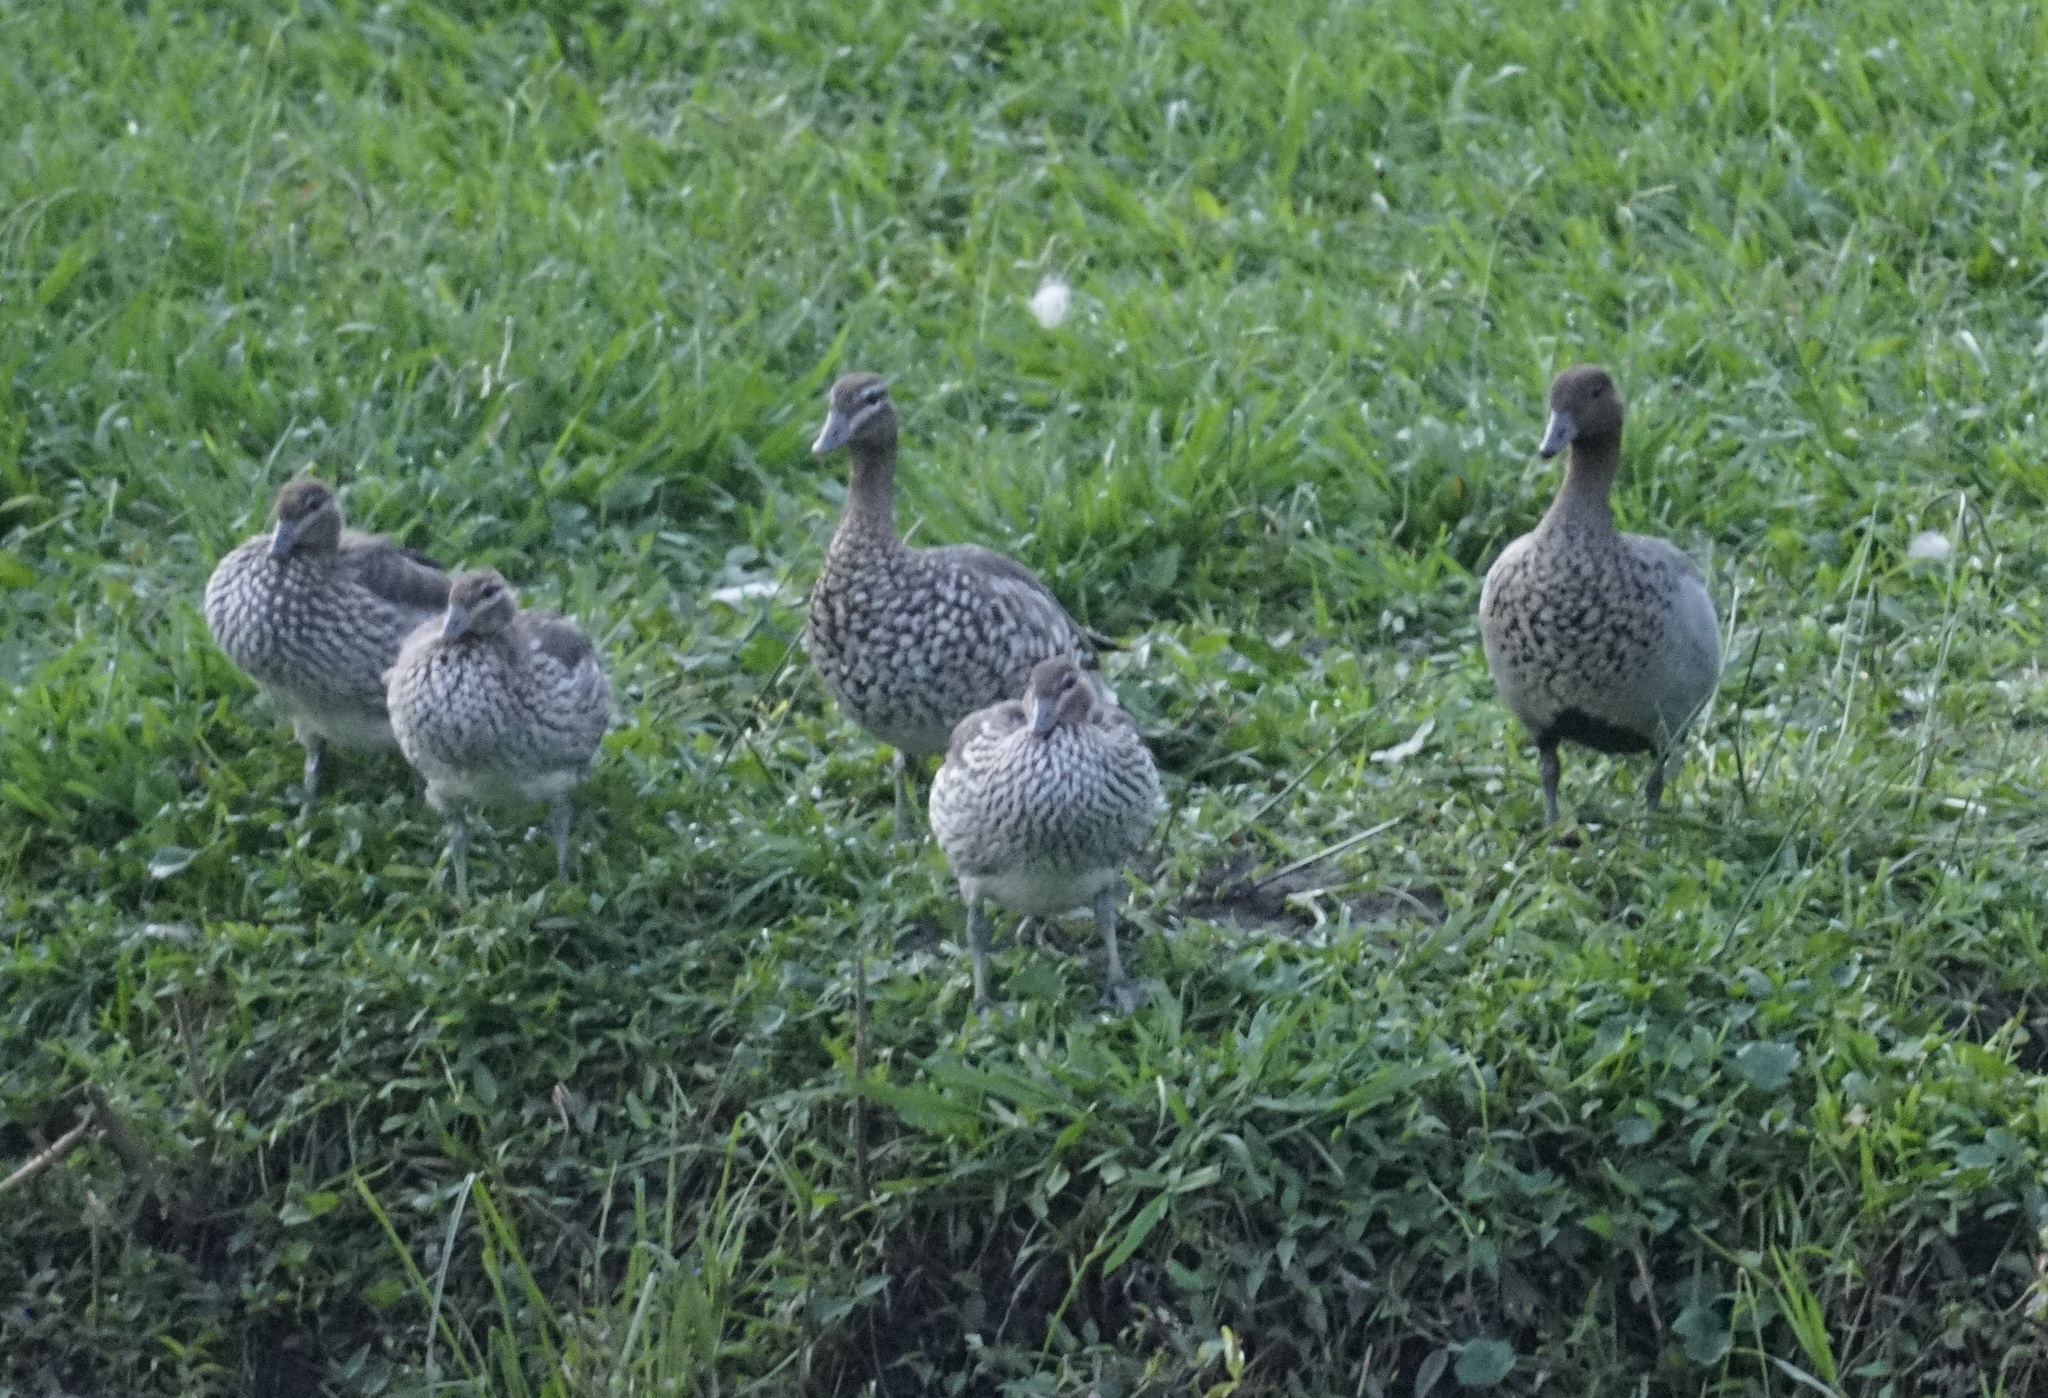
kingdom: Animalia
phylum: Chordata
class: Aves
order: Anseriformes
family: Anatidae
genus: Chenonetta
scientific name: Chenonetta jubata
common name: Maned duck
